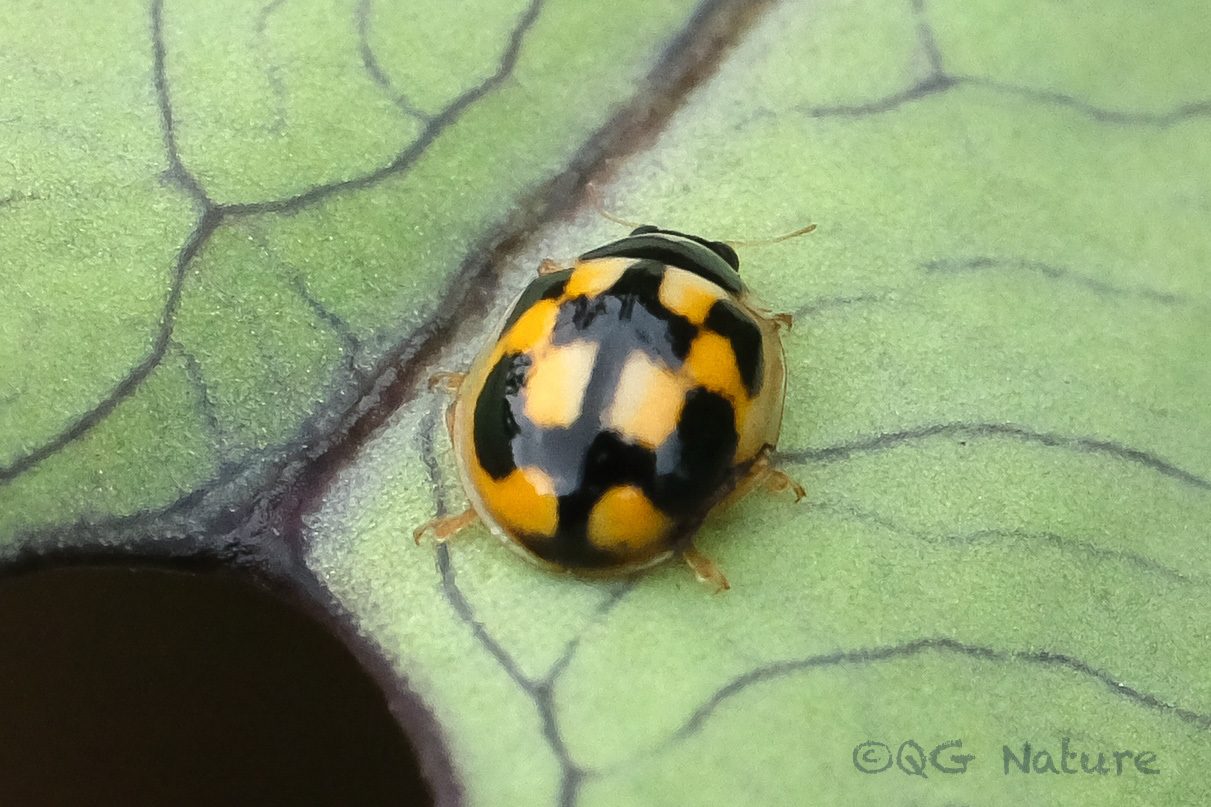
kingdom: Animalia
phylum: Arthropoda
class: Insecta
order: Coleoptera
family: Coccinellidae
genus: Propylea
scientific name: Propylea japonica
